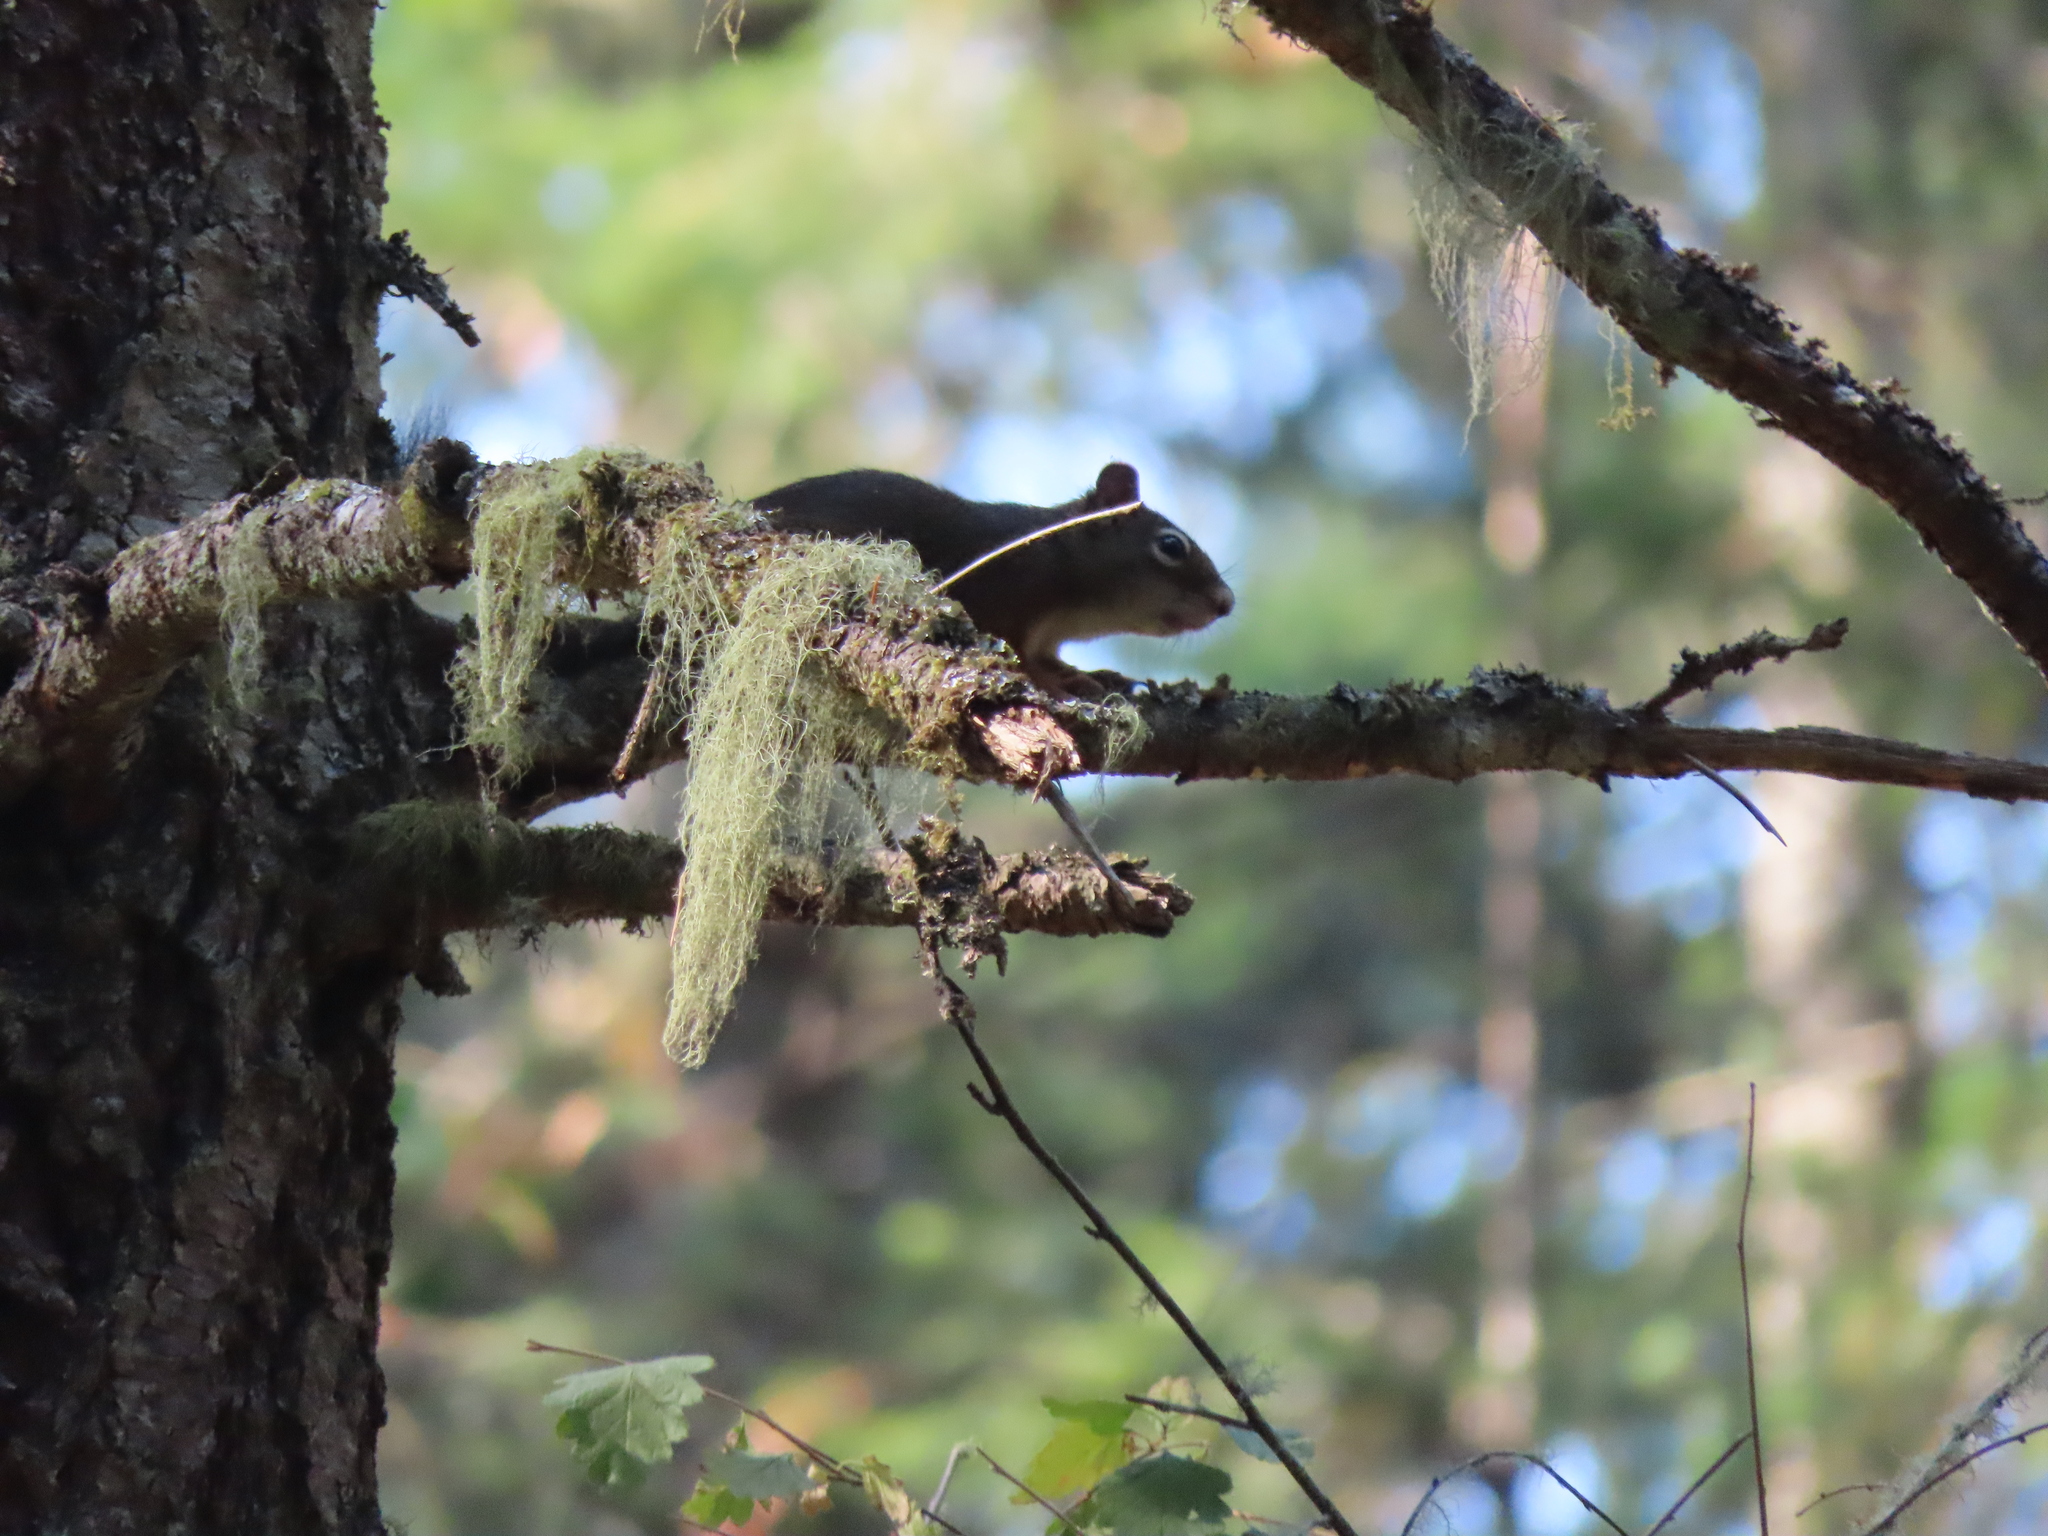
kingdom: Animalia
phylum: Chordata
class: Mammalia
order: Rodentia
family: Sciuridae
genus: Tamiasciurus
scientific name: Tamiasciurus hudsonicus
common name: Red squirrel
